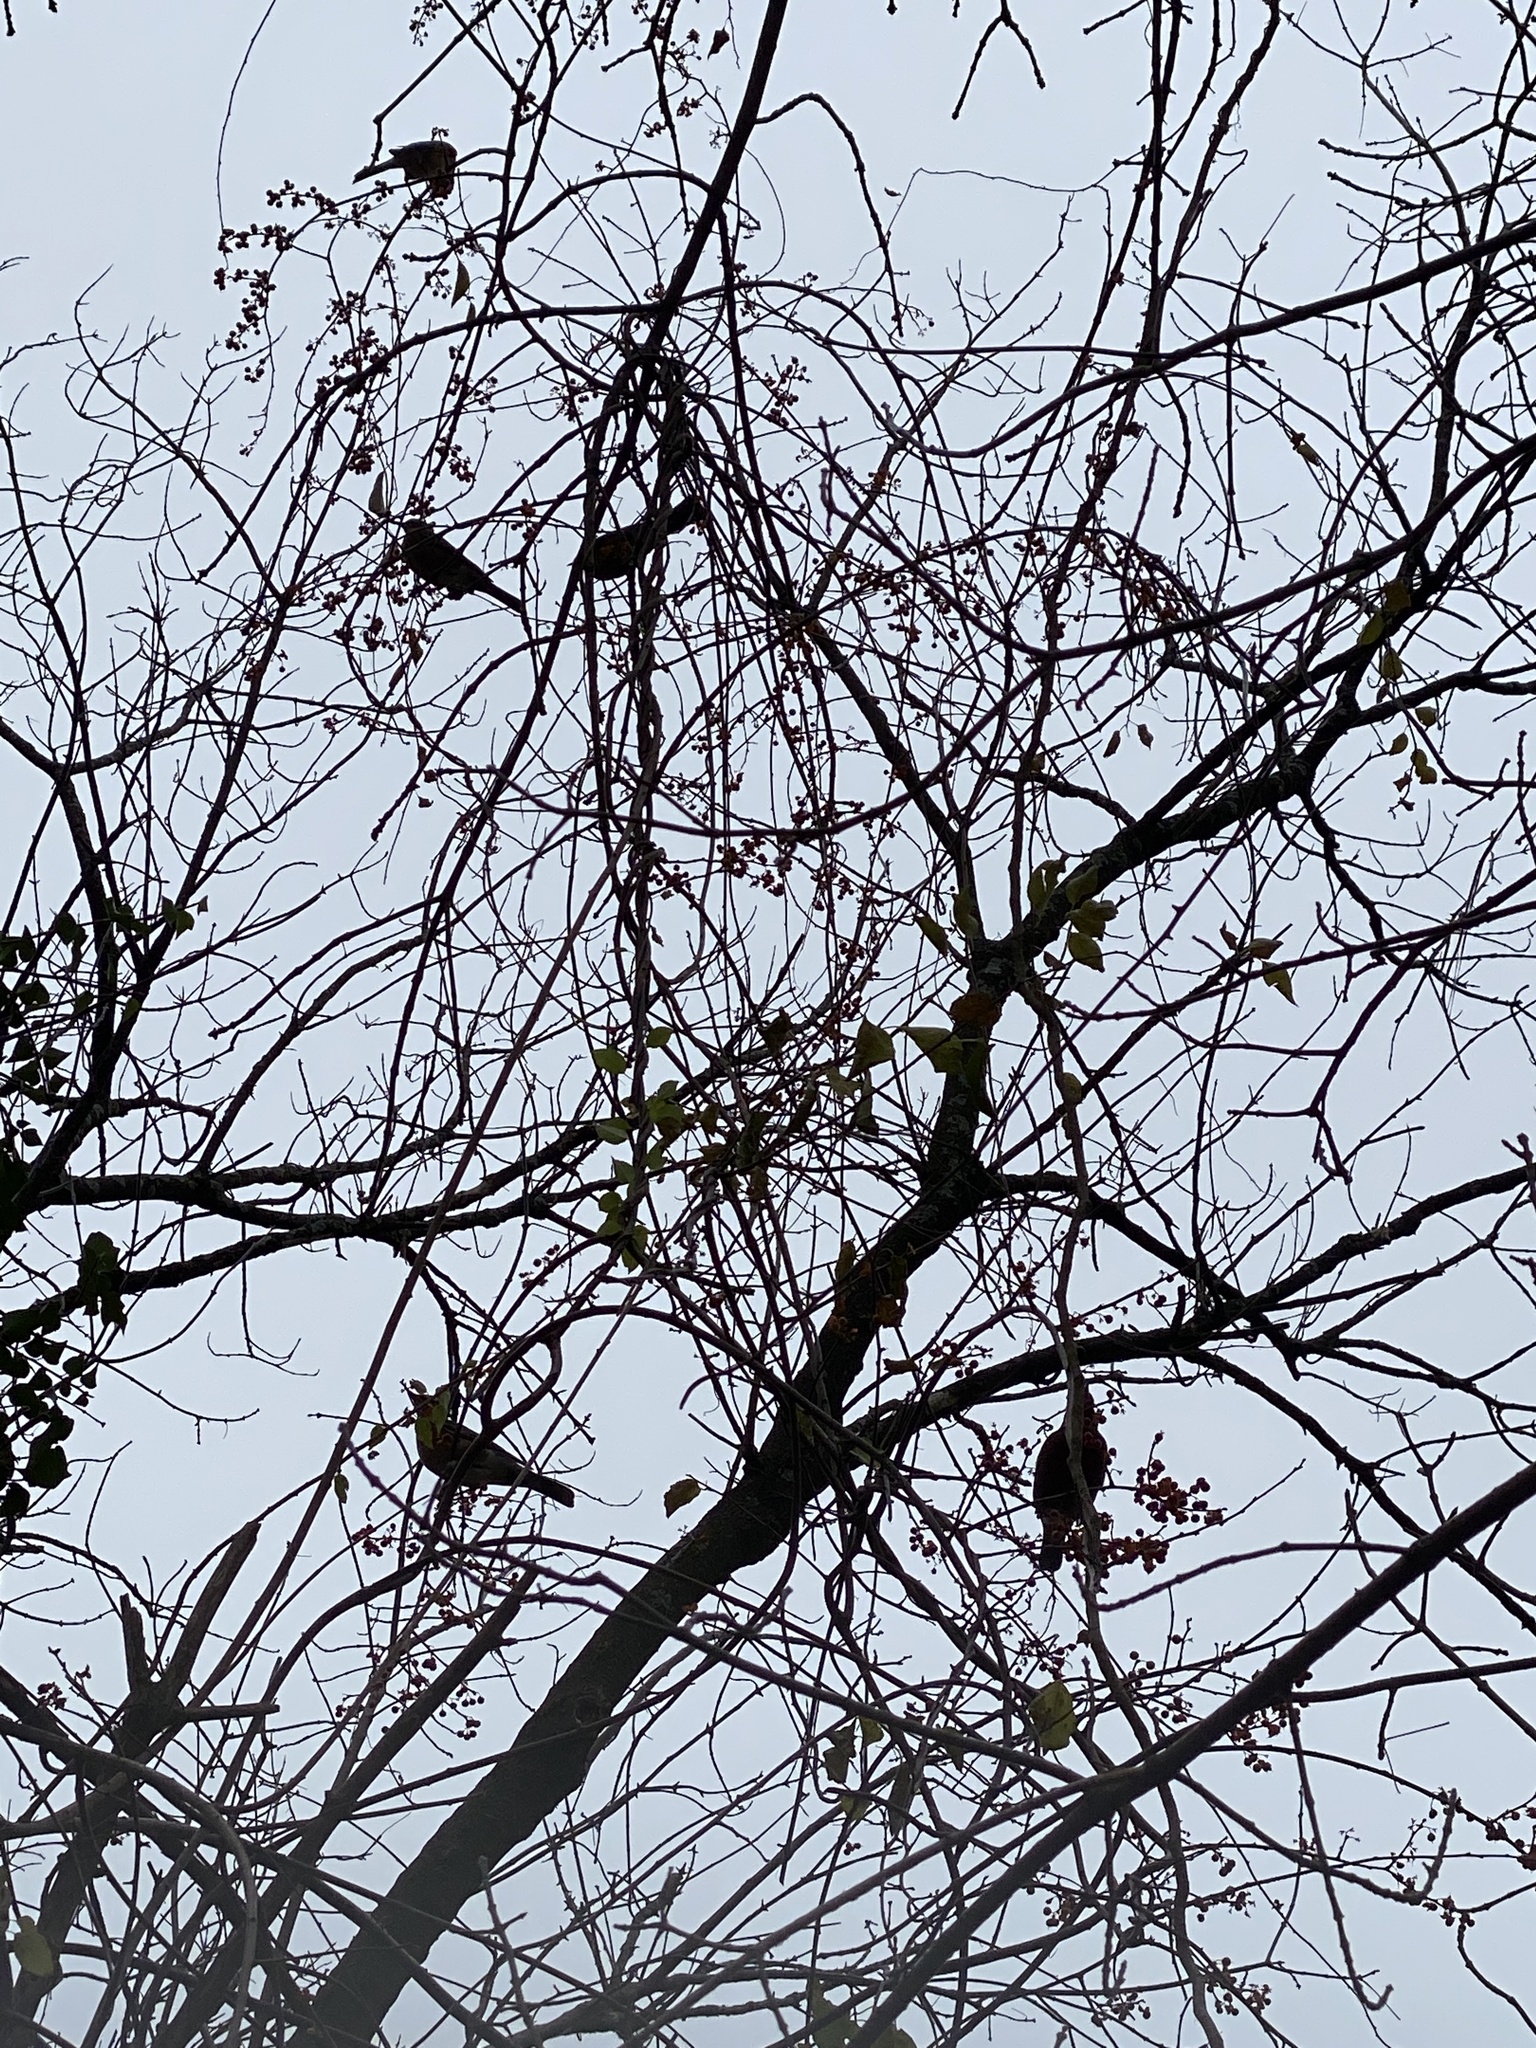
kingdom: Animalia
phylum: Chordata
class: Aves
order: Passeriformes
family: Turdidae
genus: Turdus
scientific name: Turdus migratorius
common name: American robin
